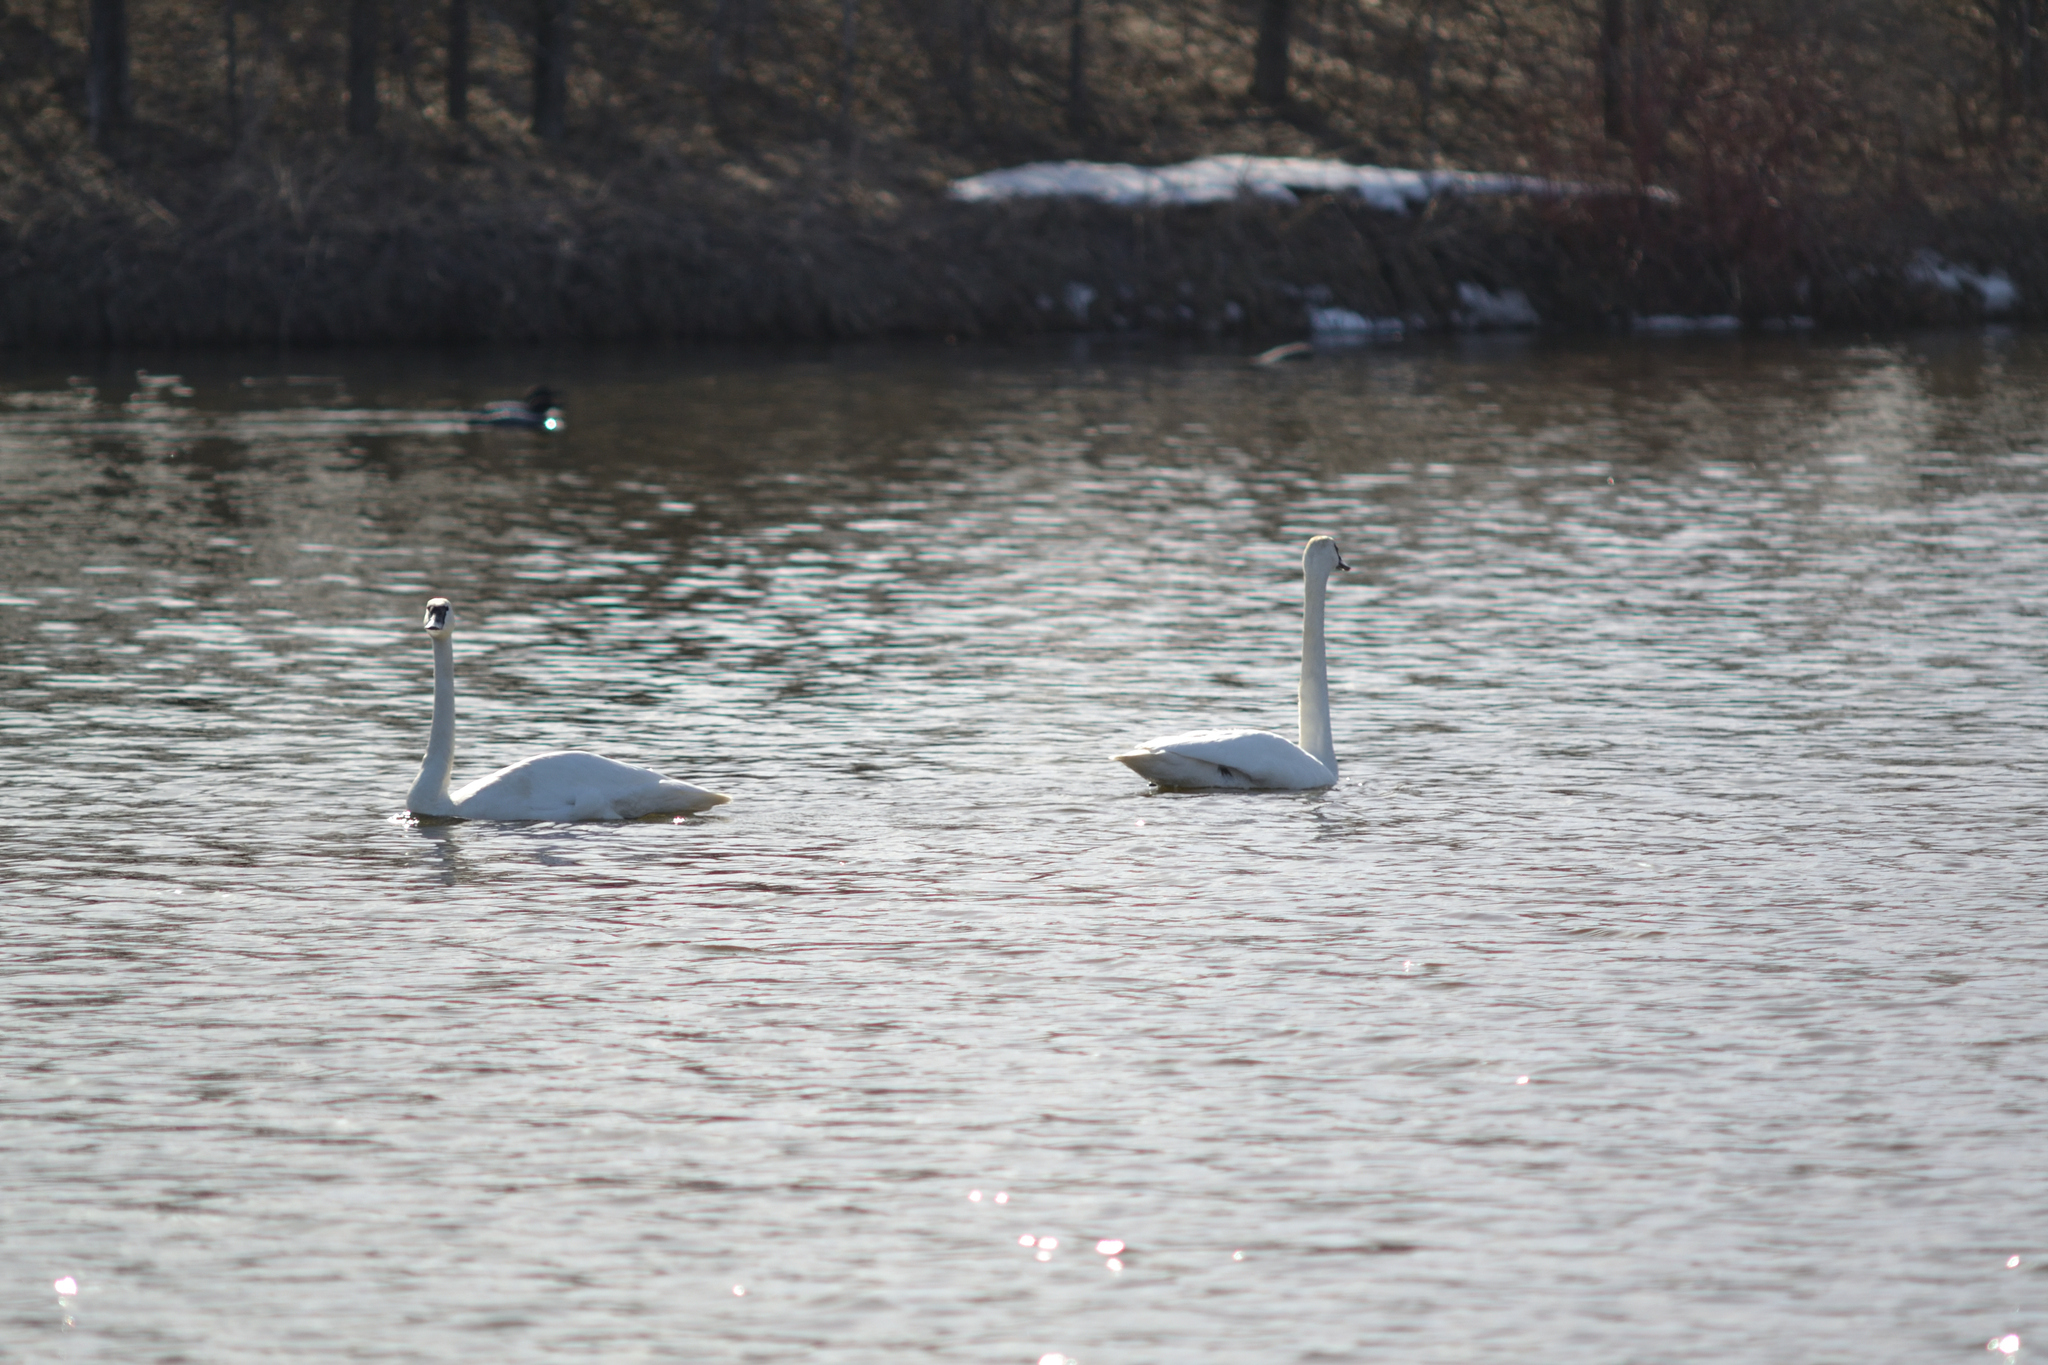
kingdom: Animalia
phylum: Chordata
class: Aves
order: Anseriformes
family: Anatidae
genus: Cygnus
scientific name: Cygnus buccinator
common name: Trumpeter swan
